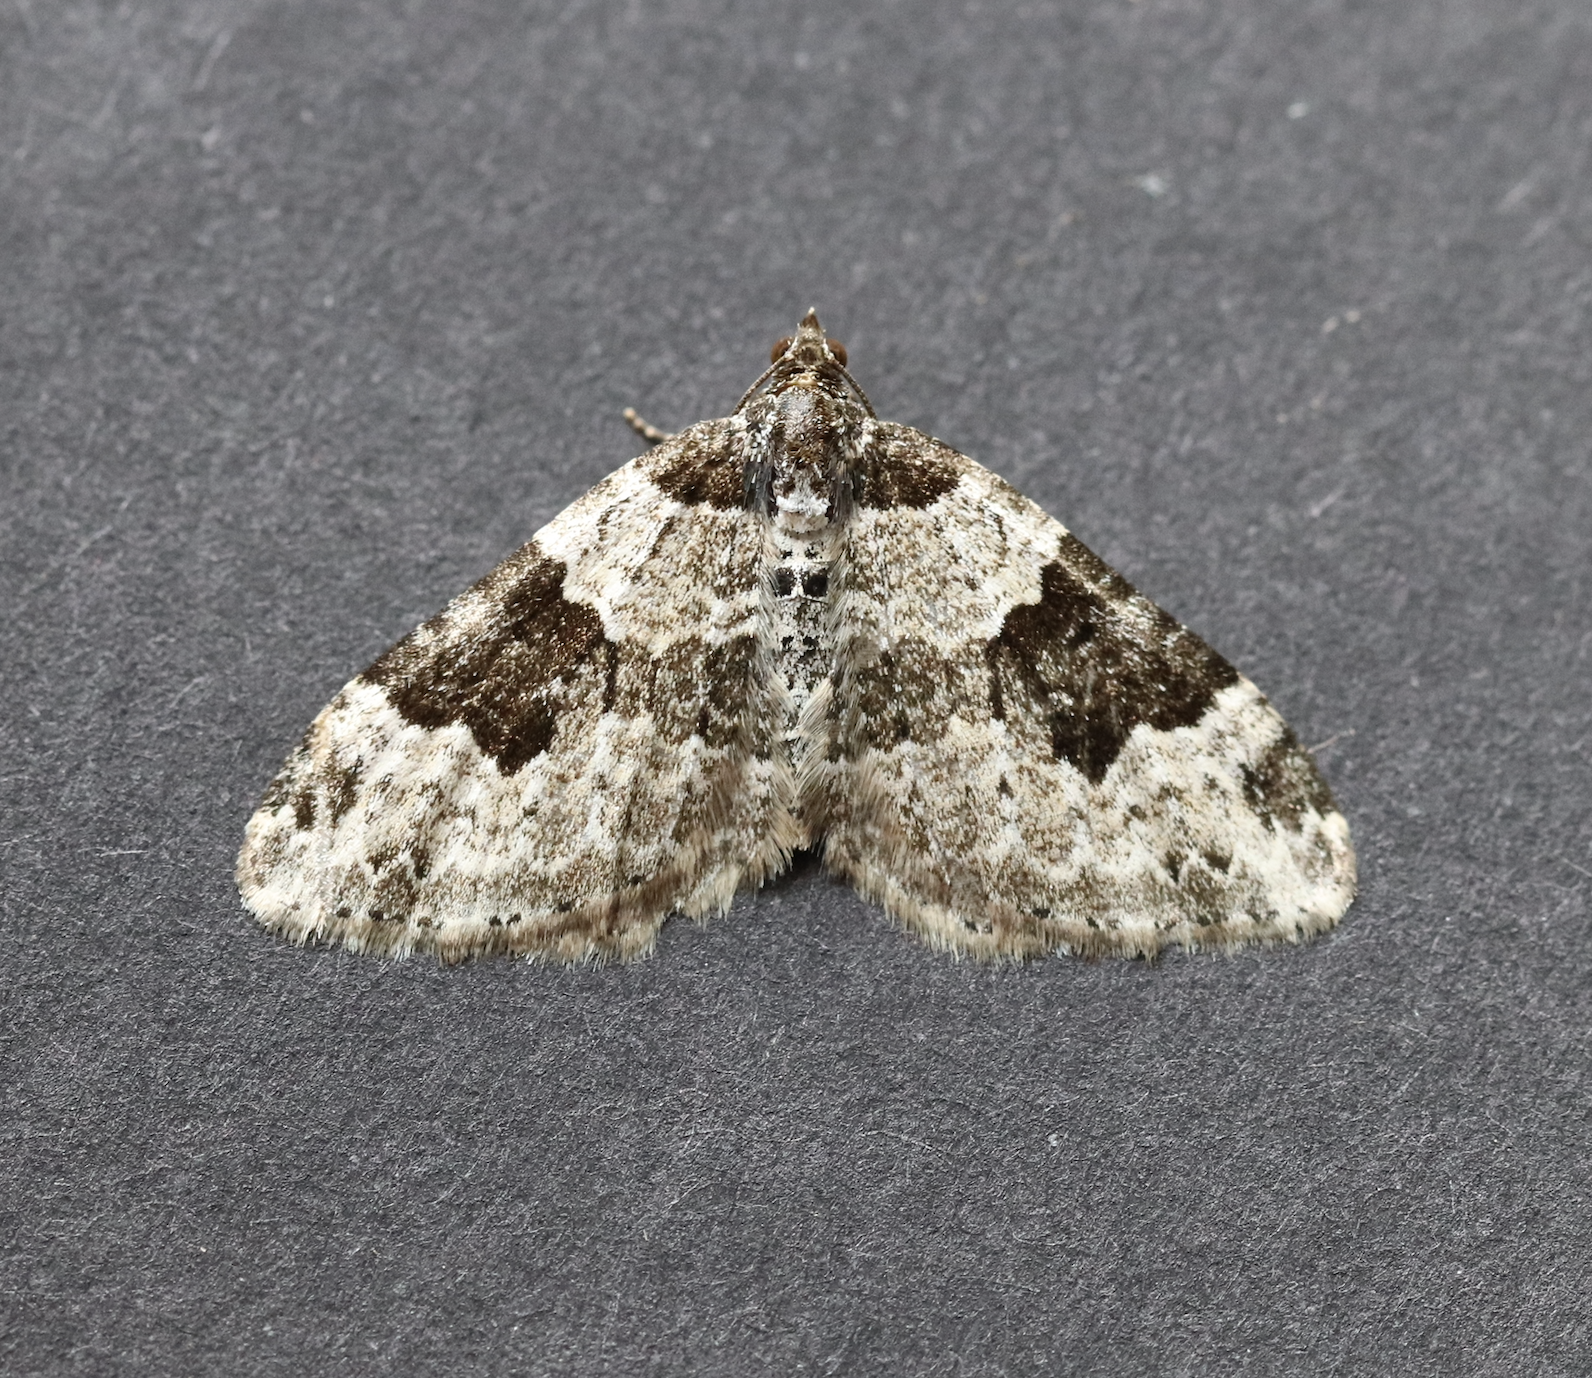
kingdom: Animalia
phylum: Arthropoda
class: Insecta
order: Lepidoptera
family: Geometridae
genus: Xanthorhoe
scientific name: Xanthorhoe fluctuata
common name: Garden carpet
